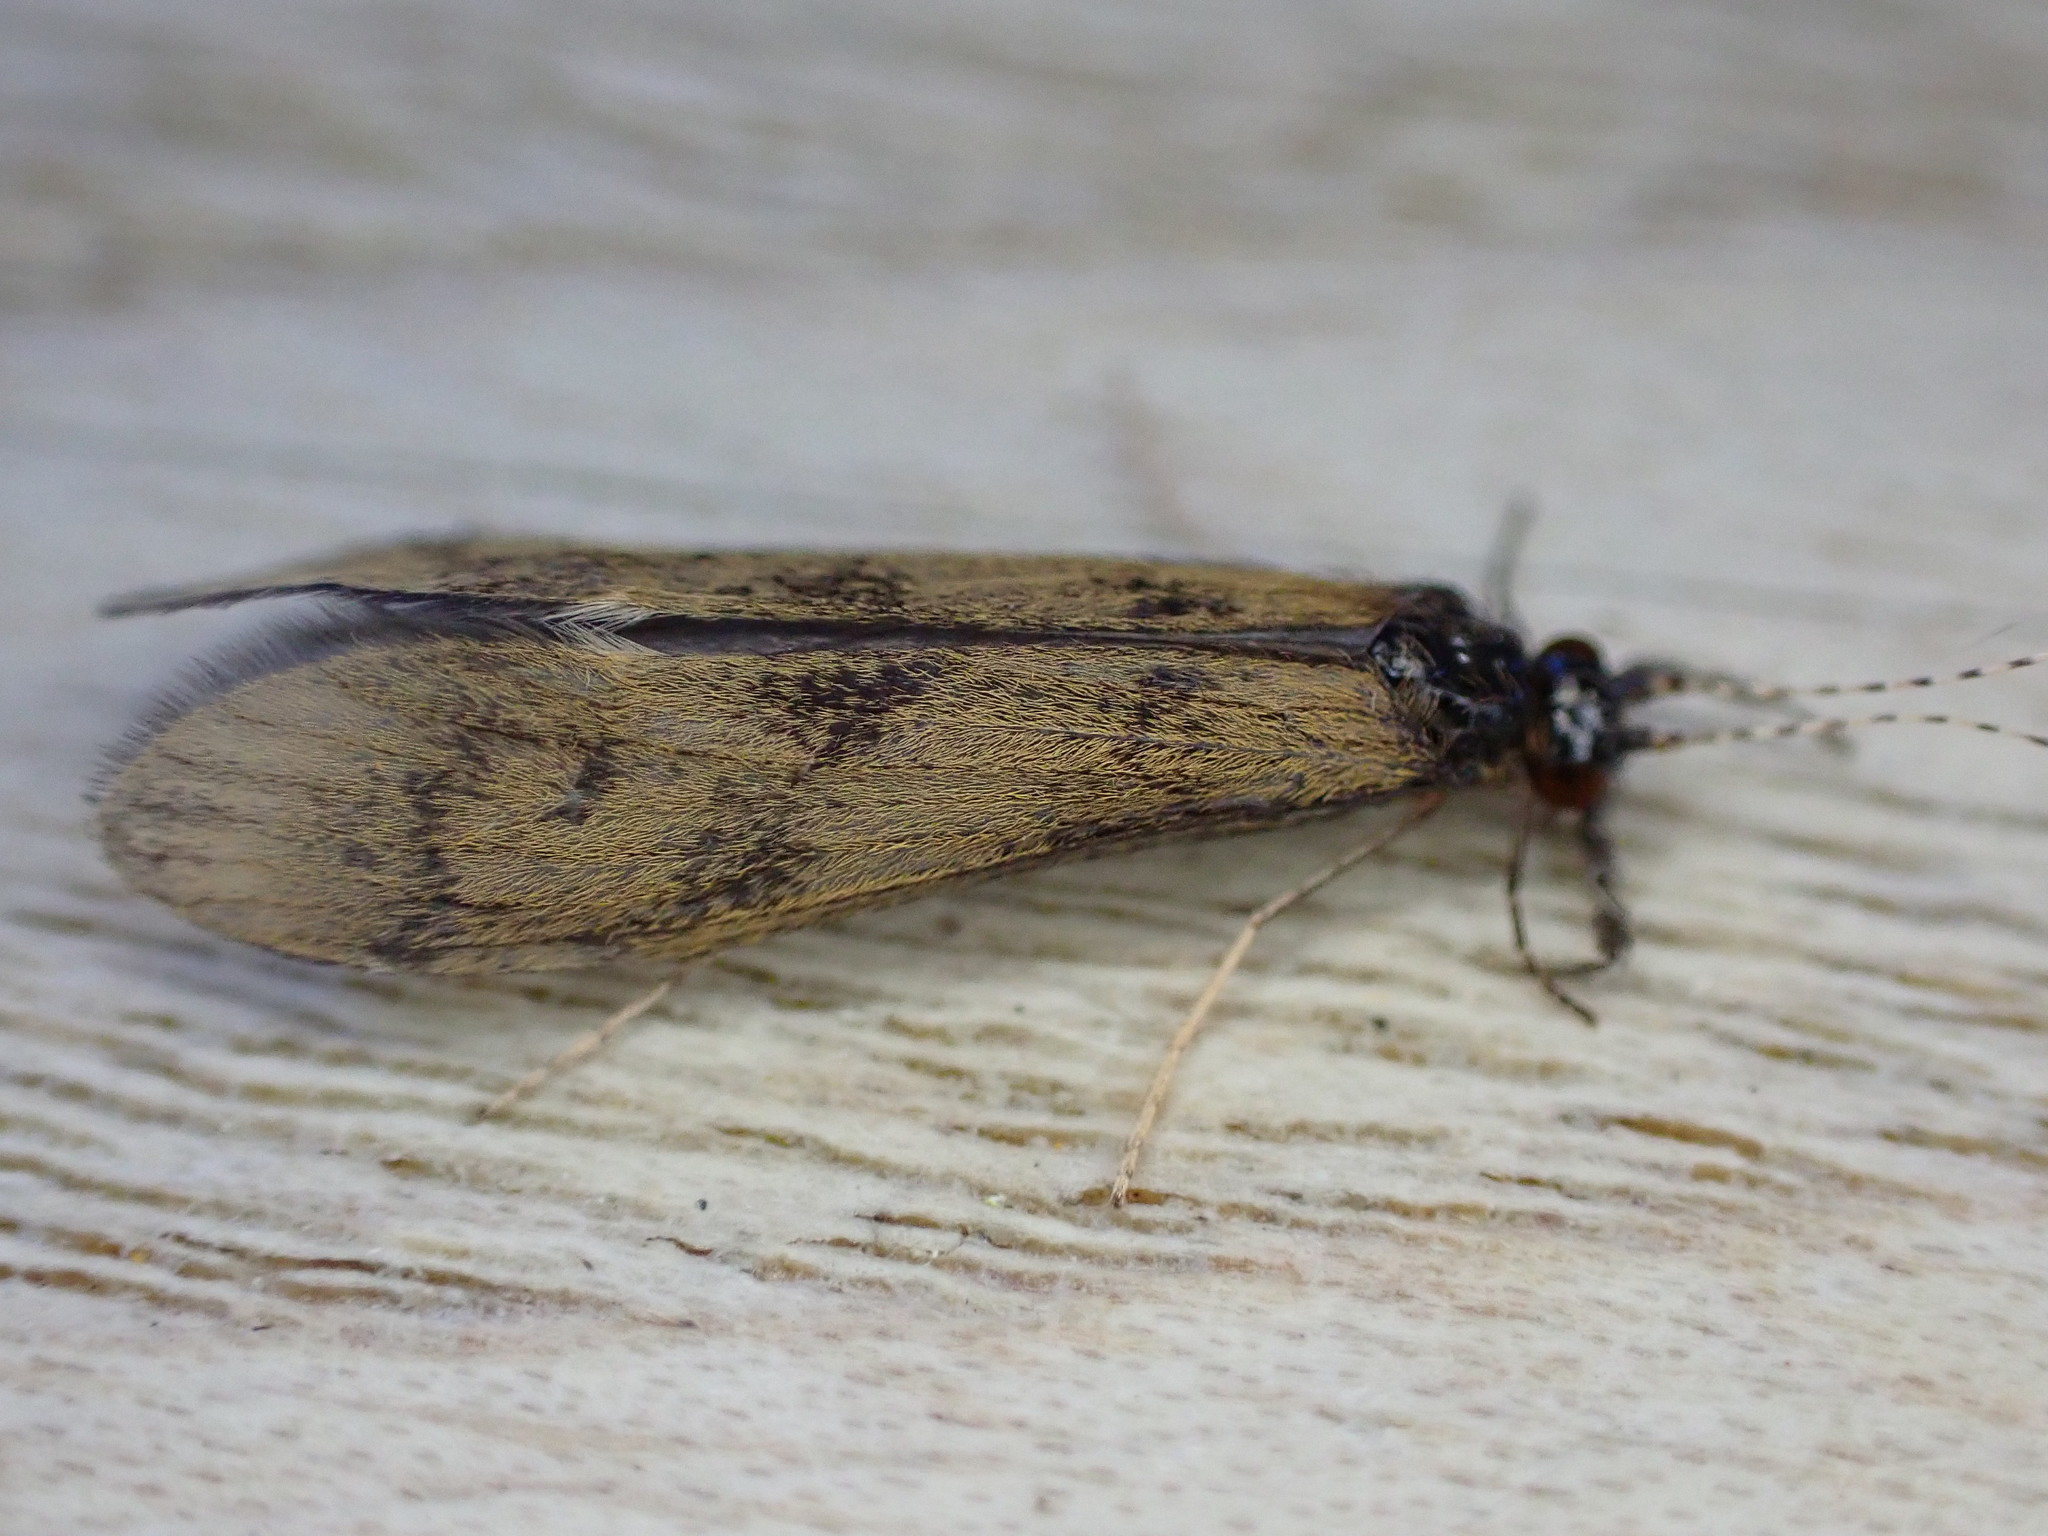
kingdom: Animalia
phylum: Arthropoda
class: Insecta
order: Trichoptera
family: Leptoceridae
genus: Mystacides
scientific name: Mystacides longicornis
